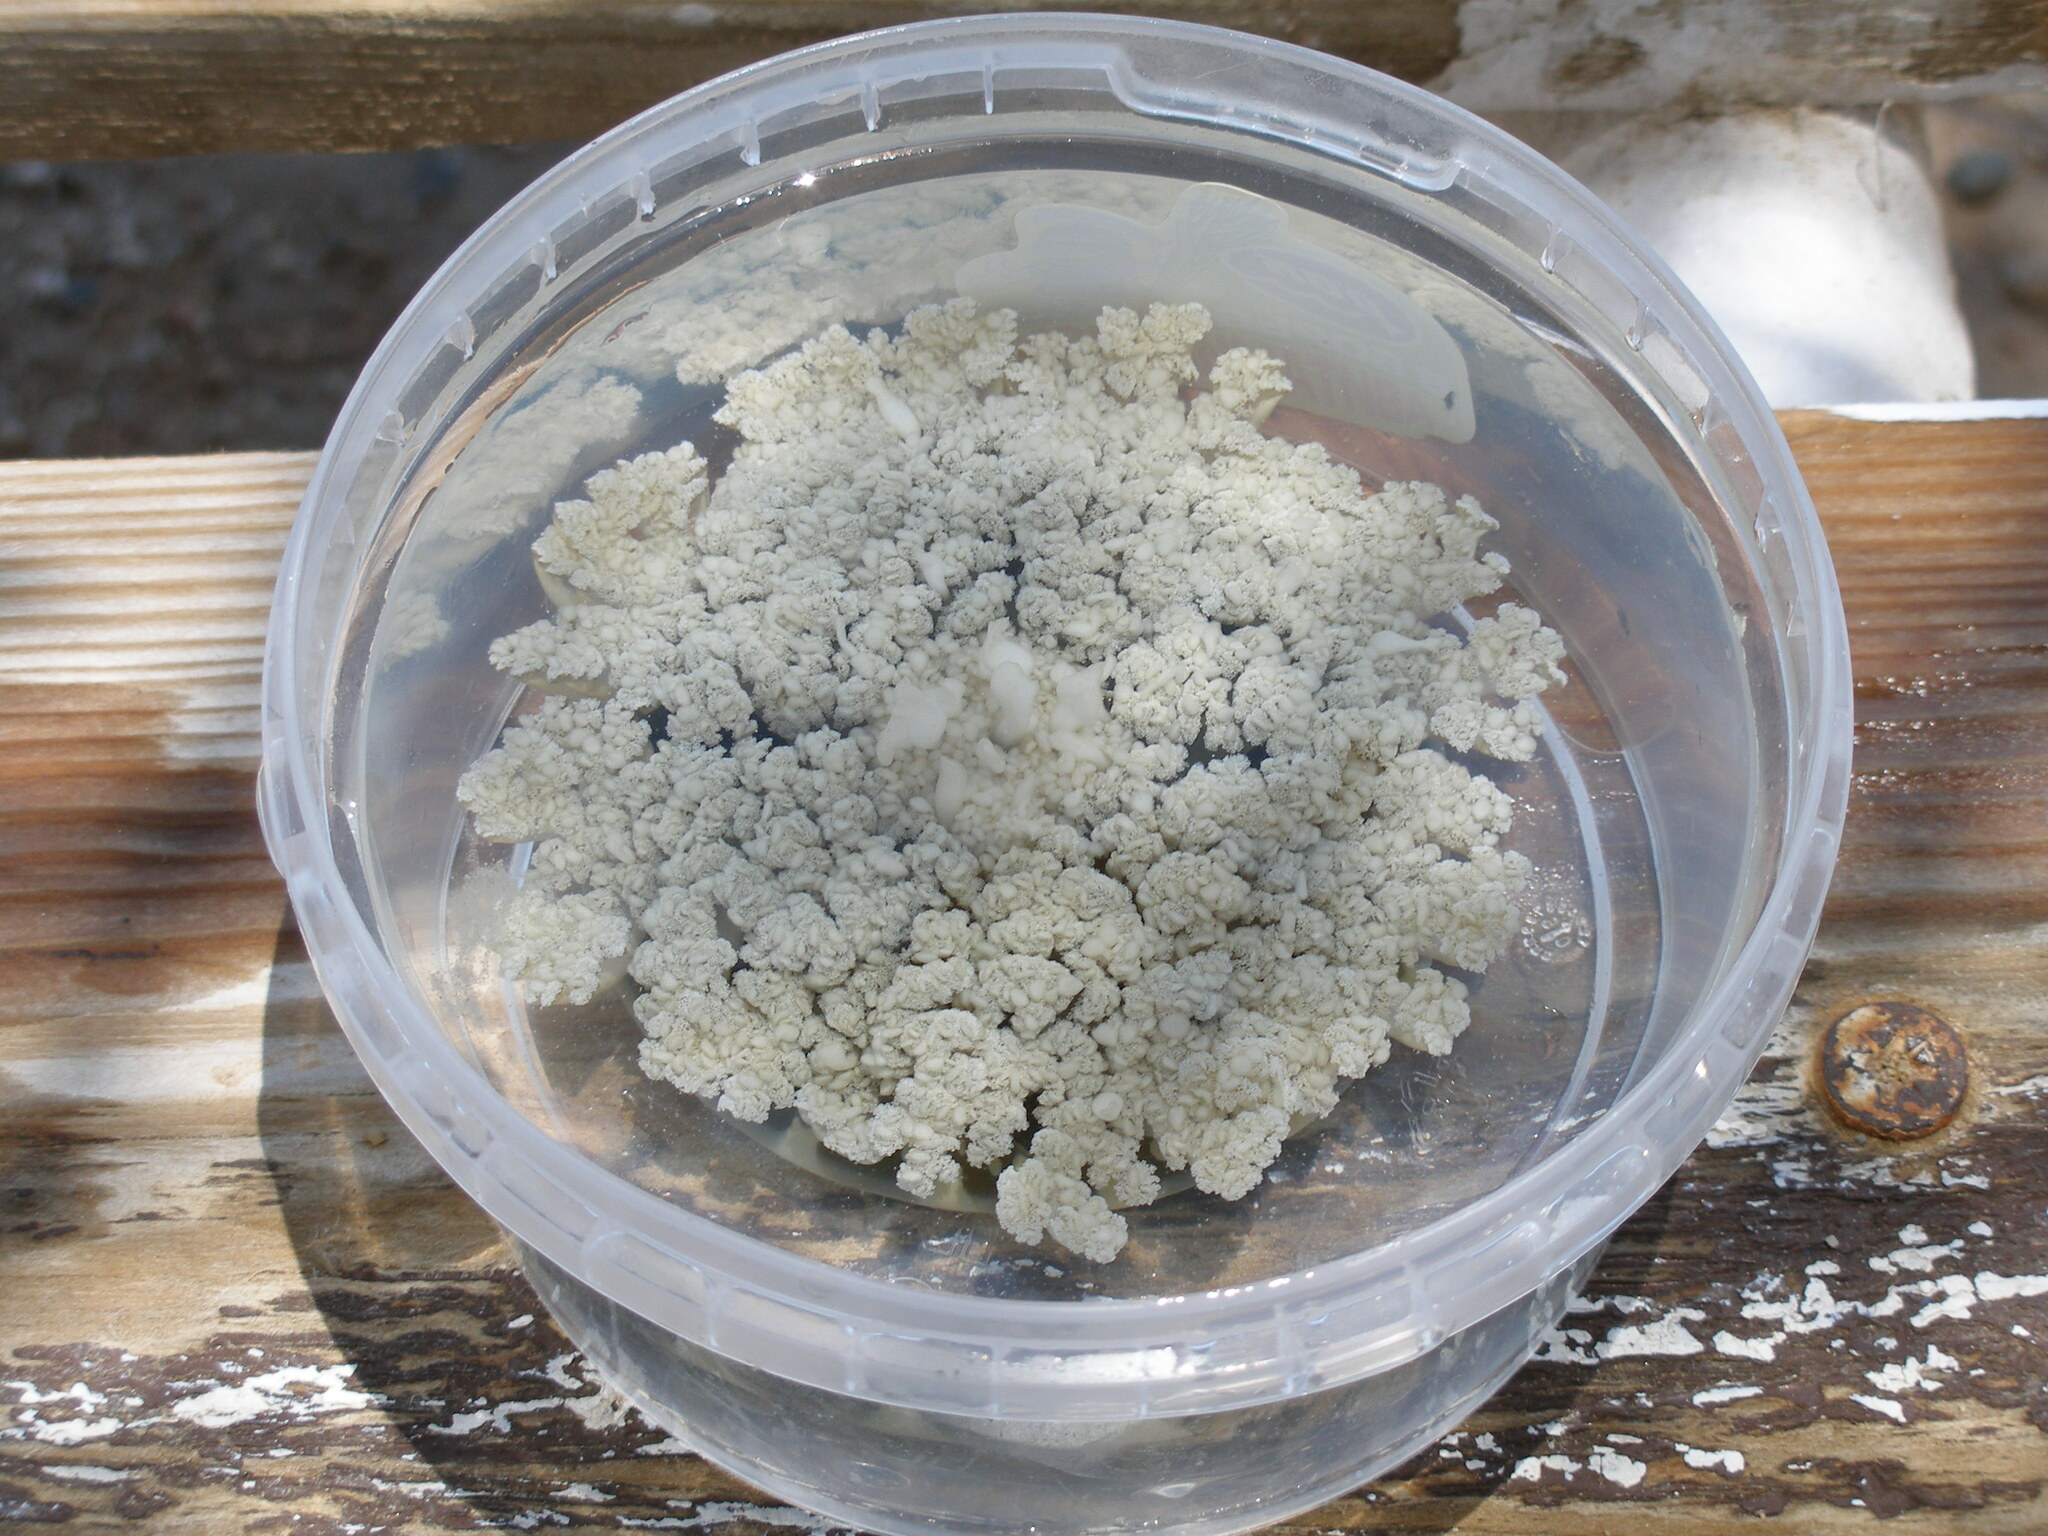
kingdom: Animalia
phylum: Cnidaria
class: Scyphozoa
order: Rhizostomeae
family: Cassiopeidae
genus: Cassiopea
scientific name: Cassiopea andromeda
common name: Upside-down jellyfish
